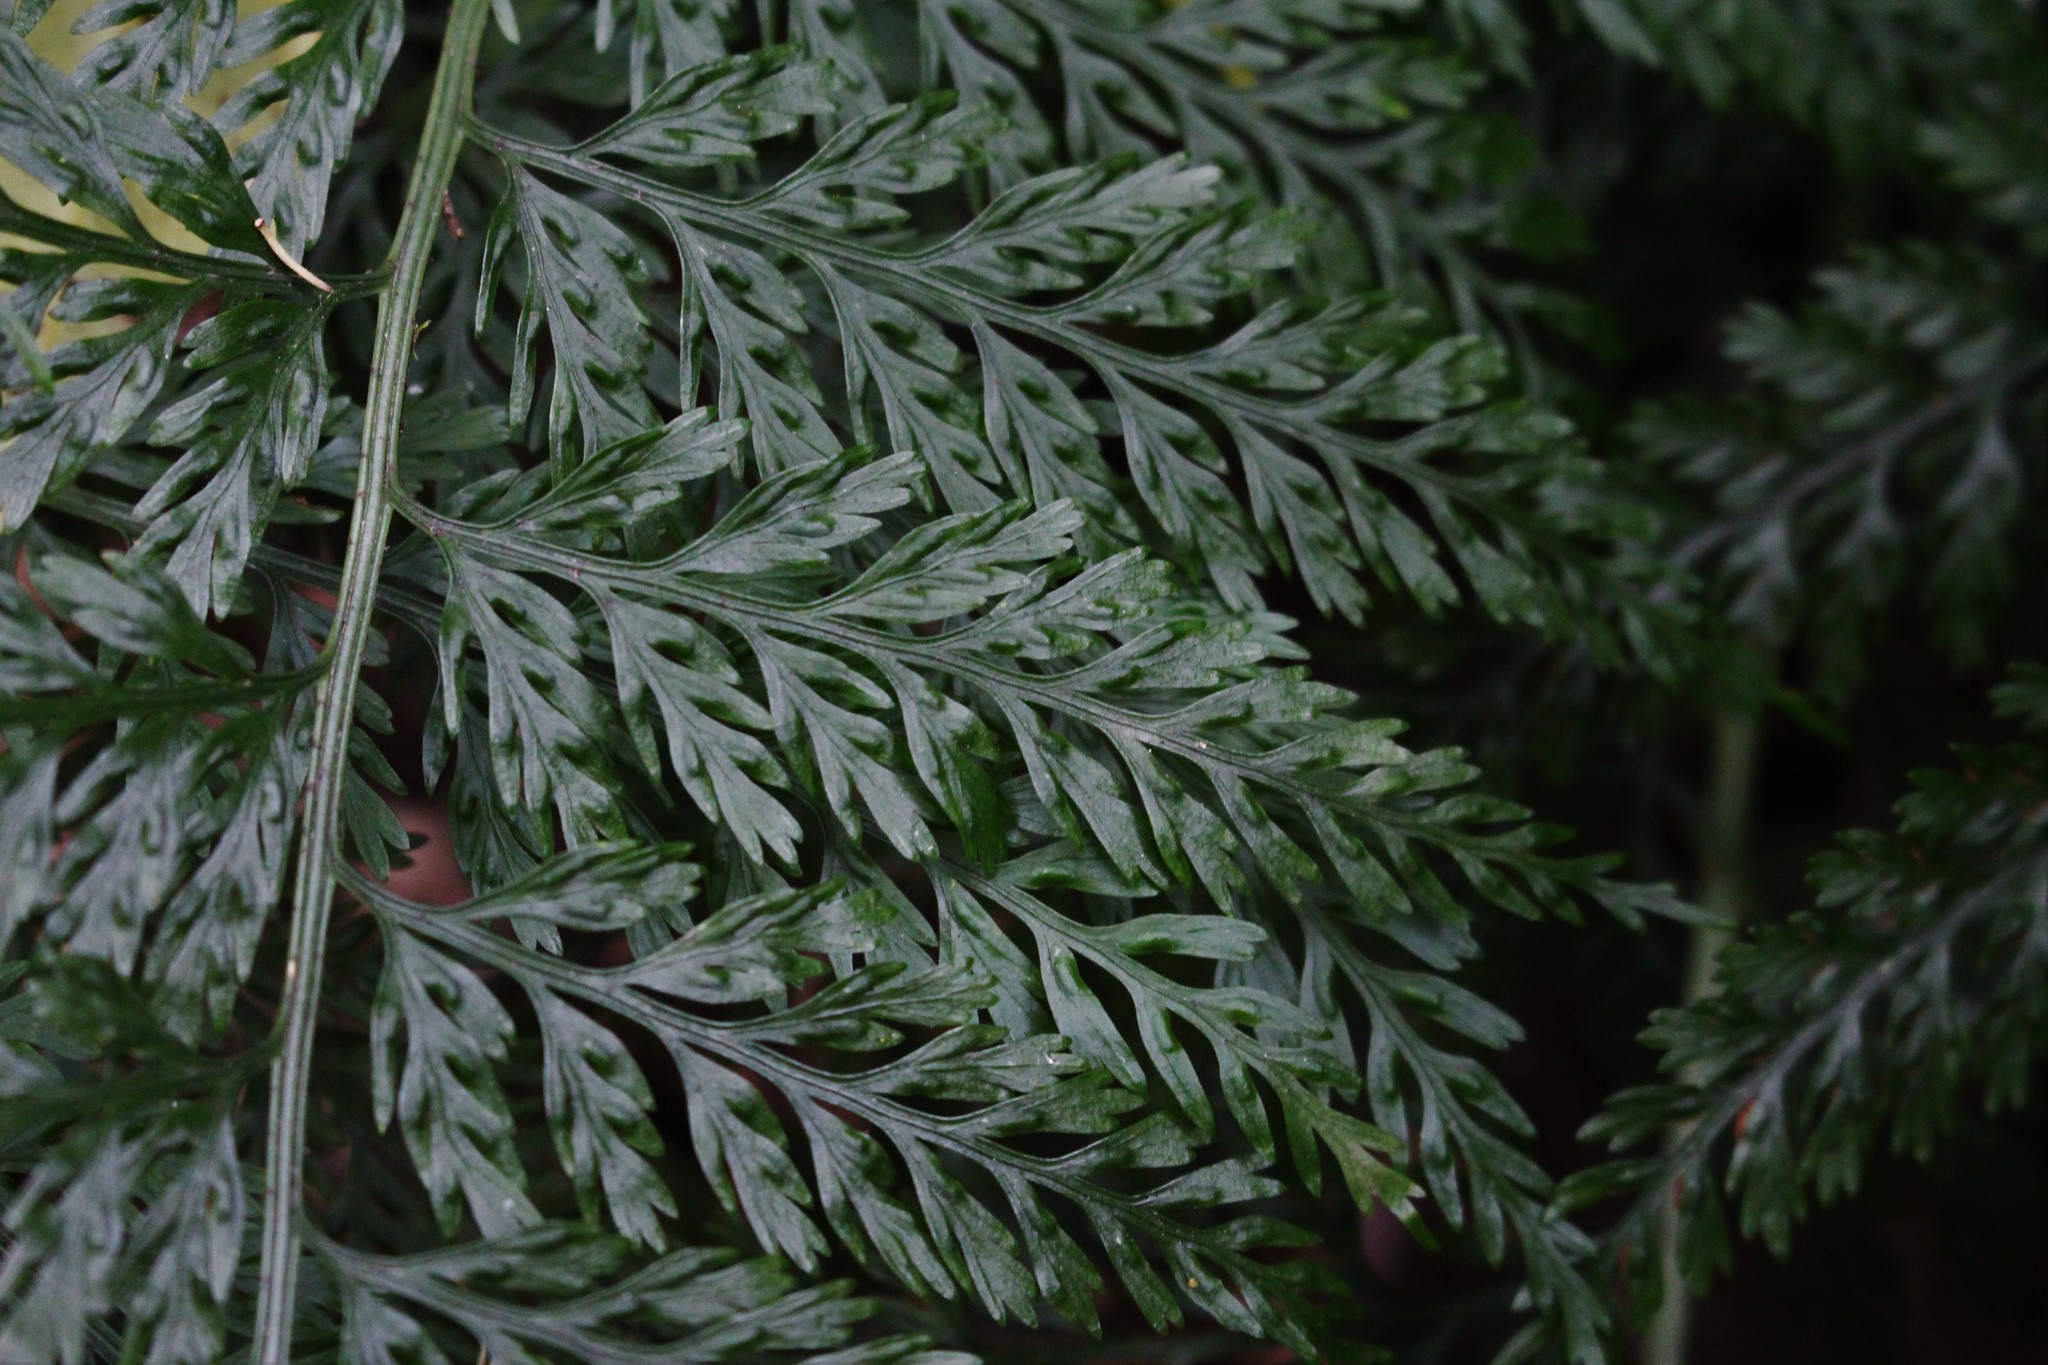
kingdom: Plantae
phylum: Tracheophyta
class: Polypodiopsida
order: Polypodiales
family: Aspleniaceae
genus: Asplenium
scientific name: Asplenium
